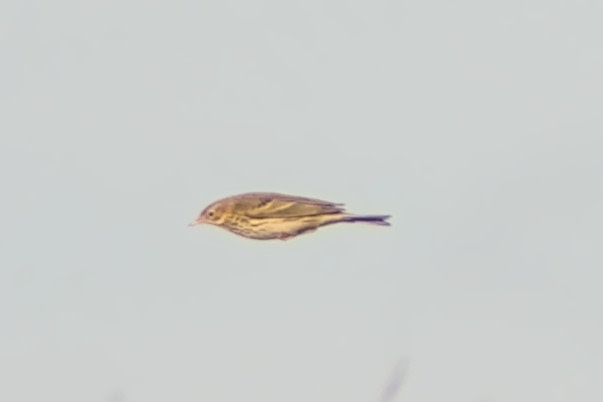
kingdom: Animalia
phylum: Chordata
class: Aves
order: Passeriformes
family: Motacillidae
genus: Anthus
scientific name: Anthus pratensis
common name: Meadow pipit
